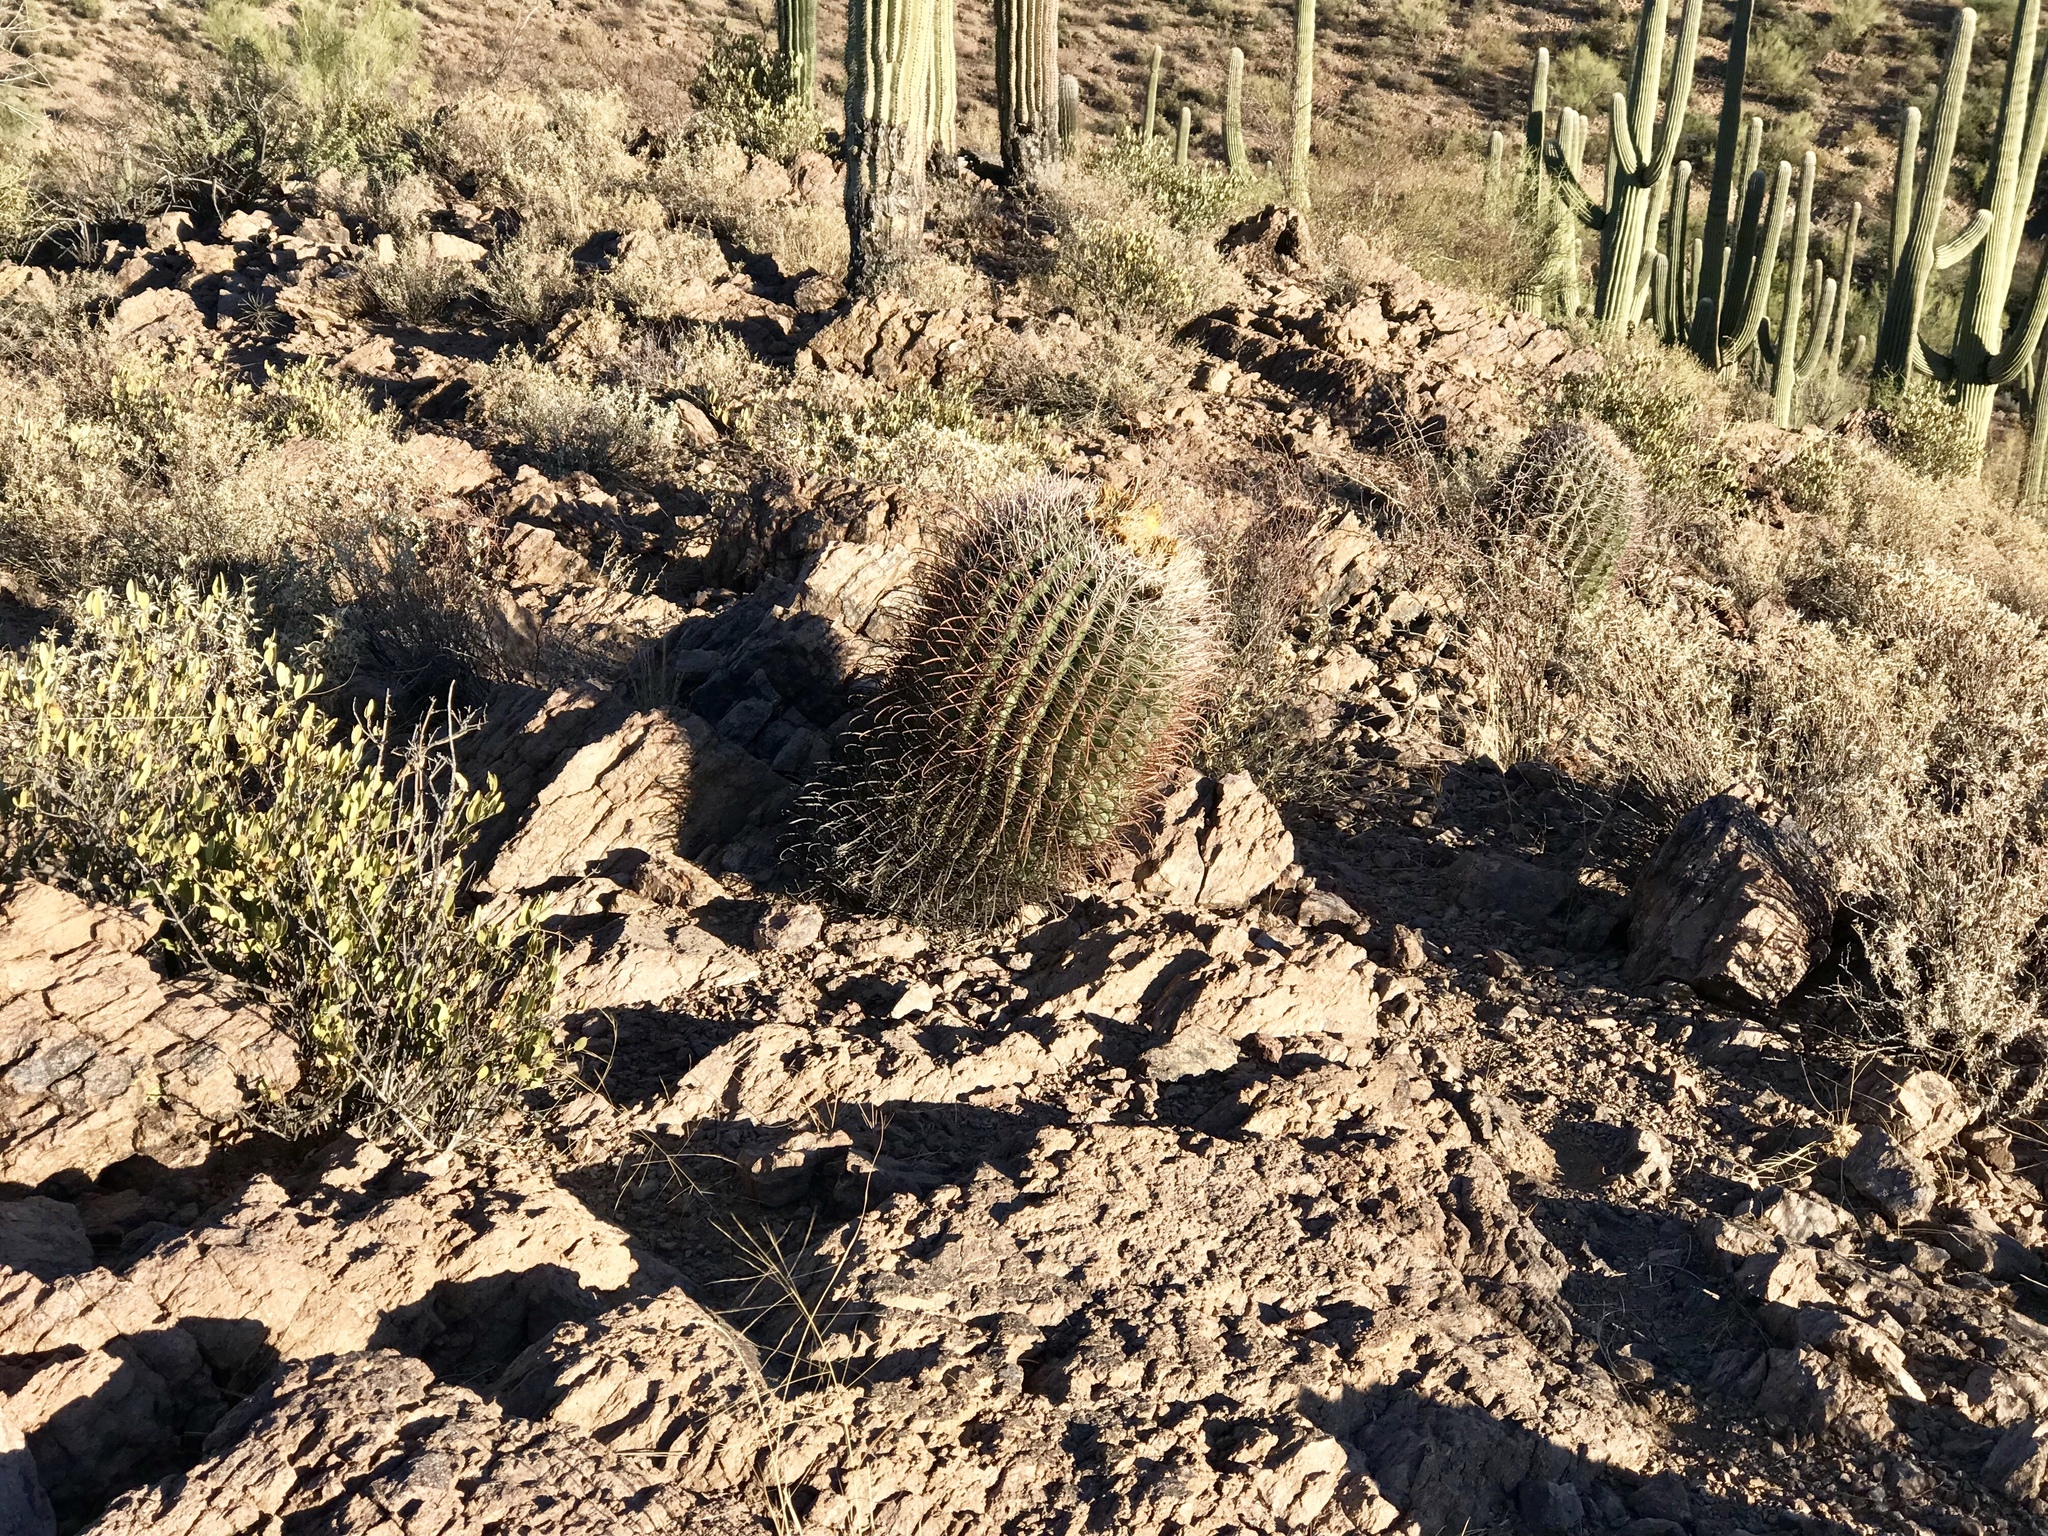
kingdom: Plantae
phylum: Tracheophyta
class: Magnoliopsida
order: Caryophyllales
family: Cactaceae
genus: Ferocactus
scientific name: Ferocactus wislizeni
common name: Candy barrel cactus
